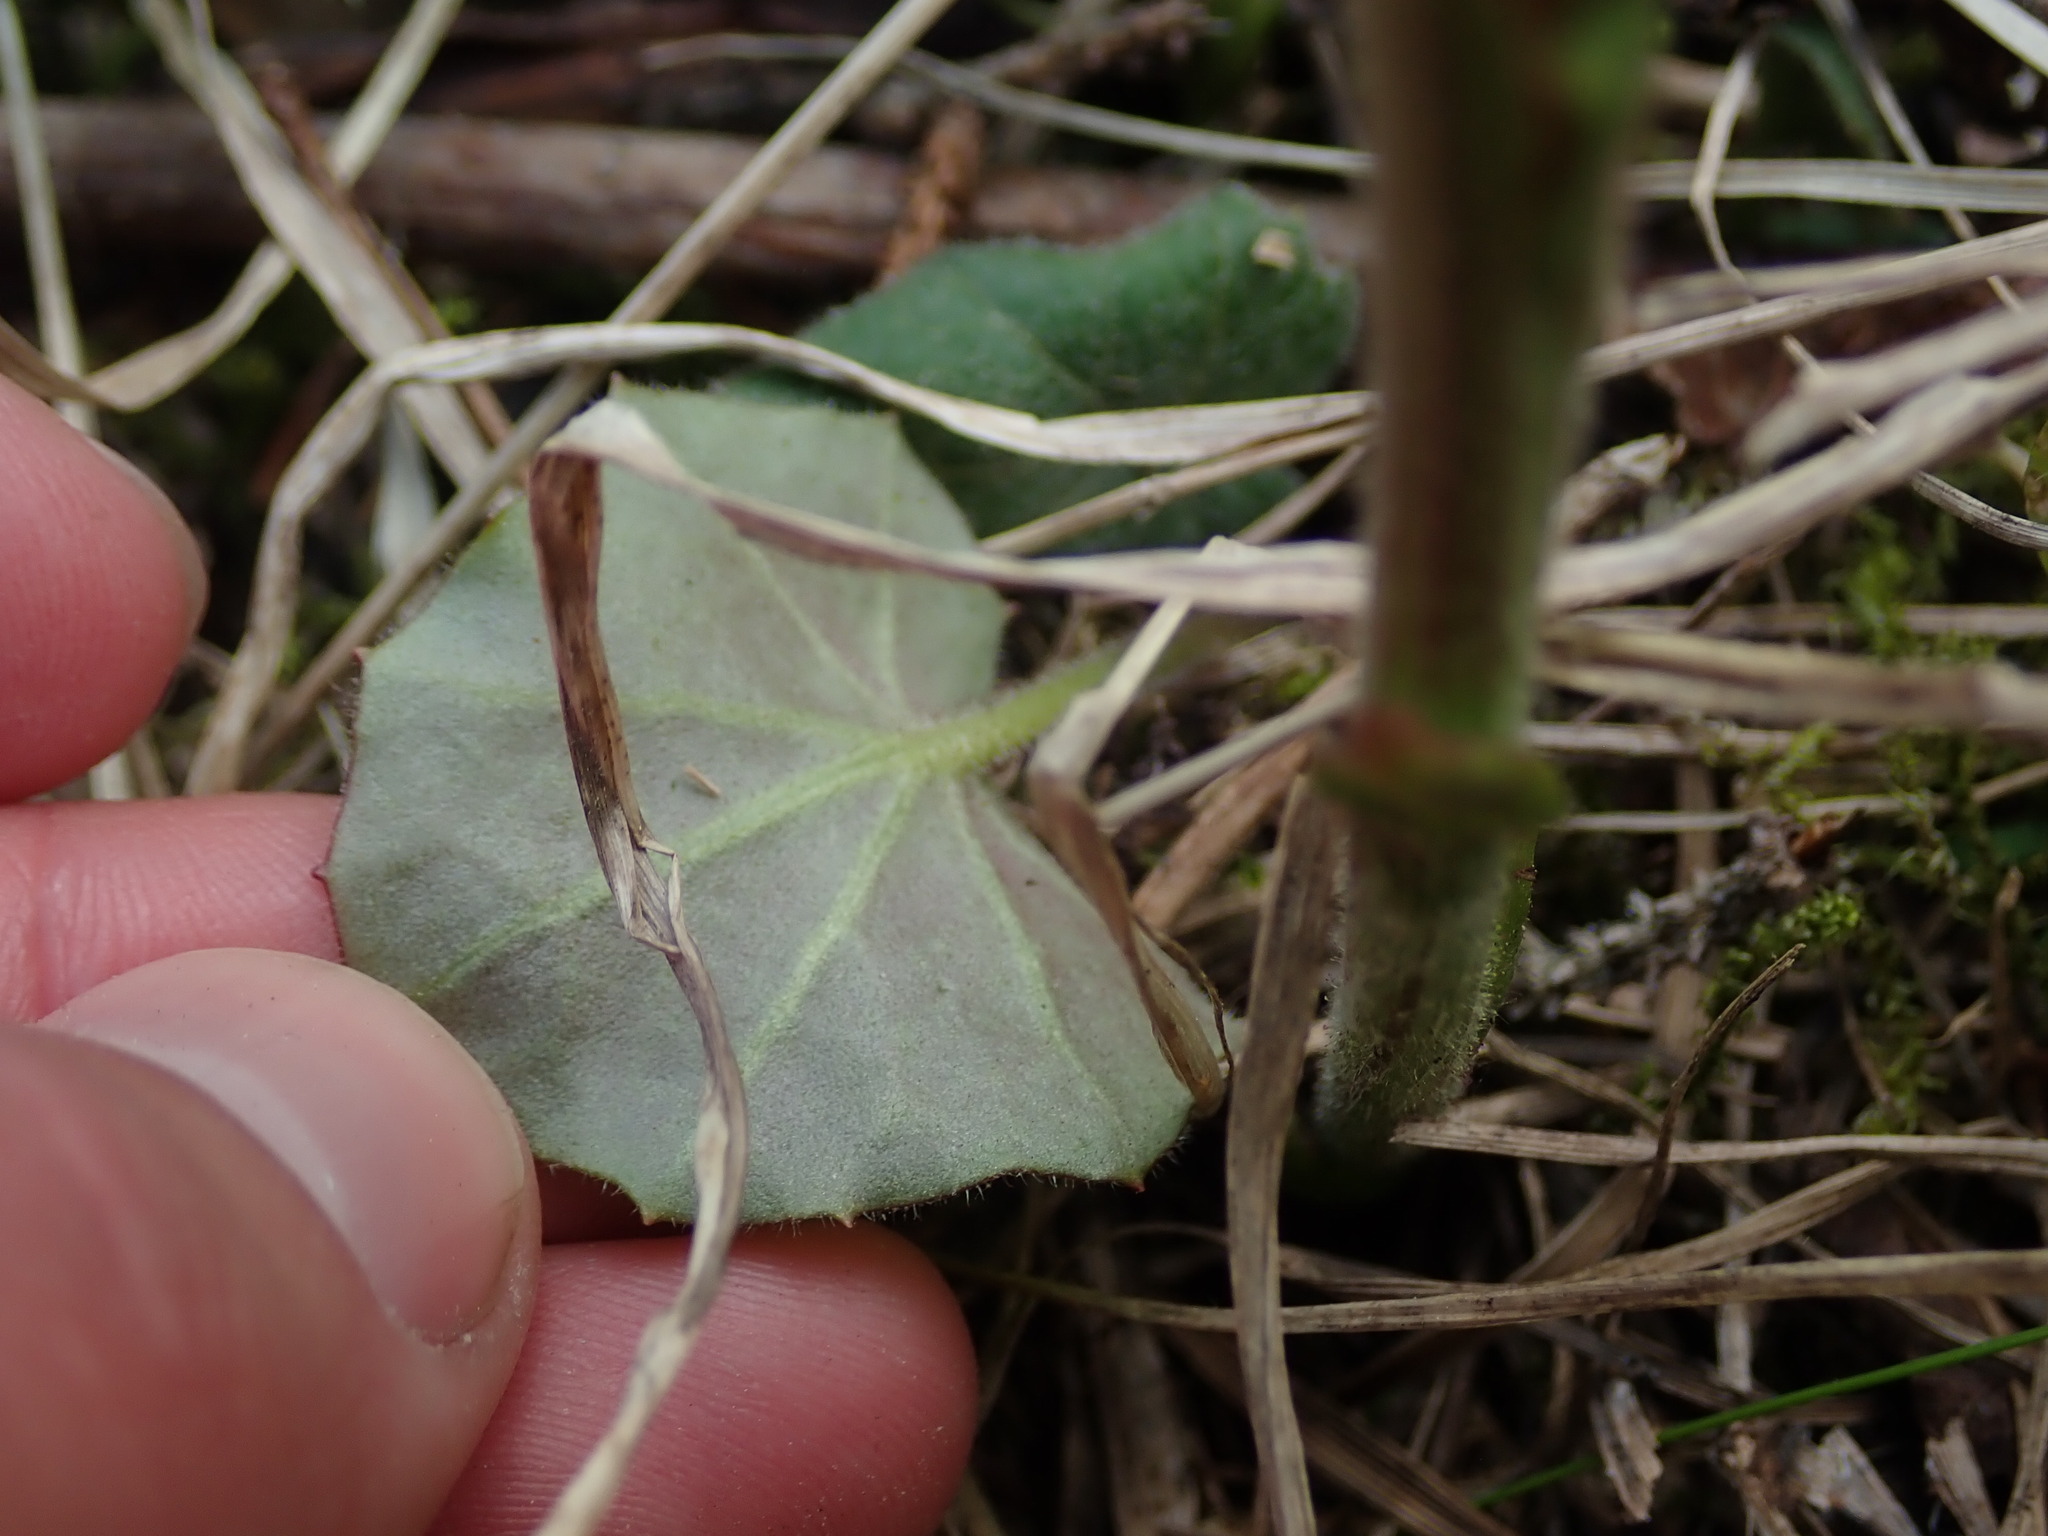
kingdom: Plantae
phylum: Tracheophyta
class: Magnoliopsida
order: Asterales
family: Asteraceae
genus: Tussilago
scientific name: Tussilago farfara
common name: Coltsfoot
